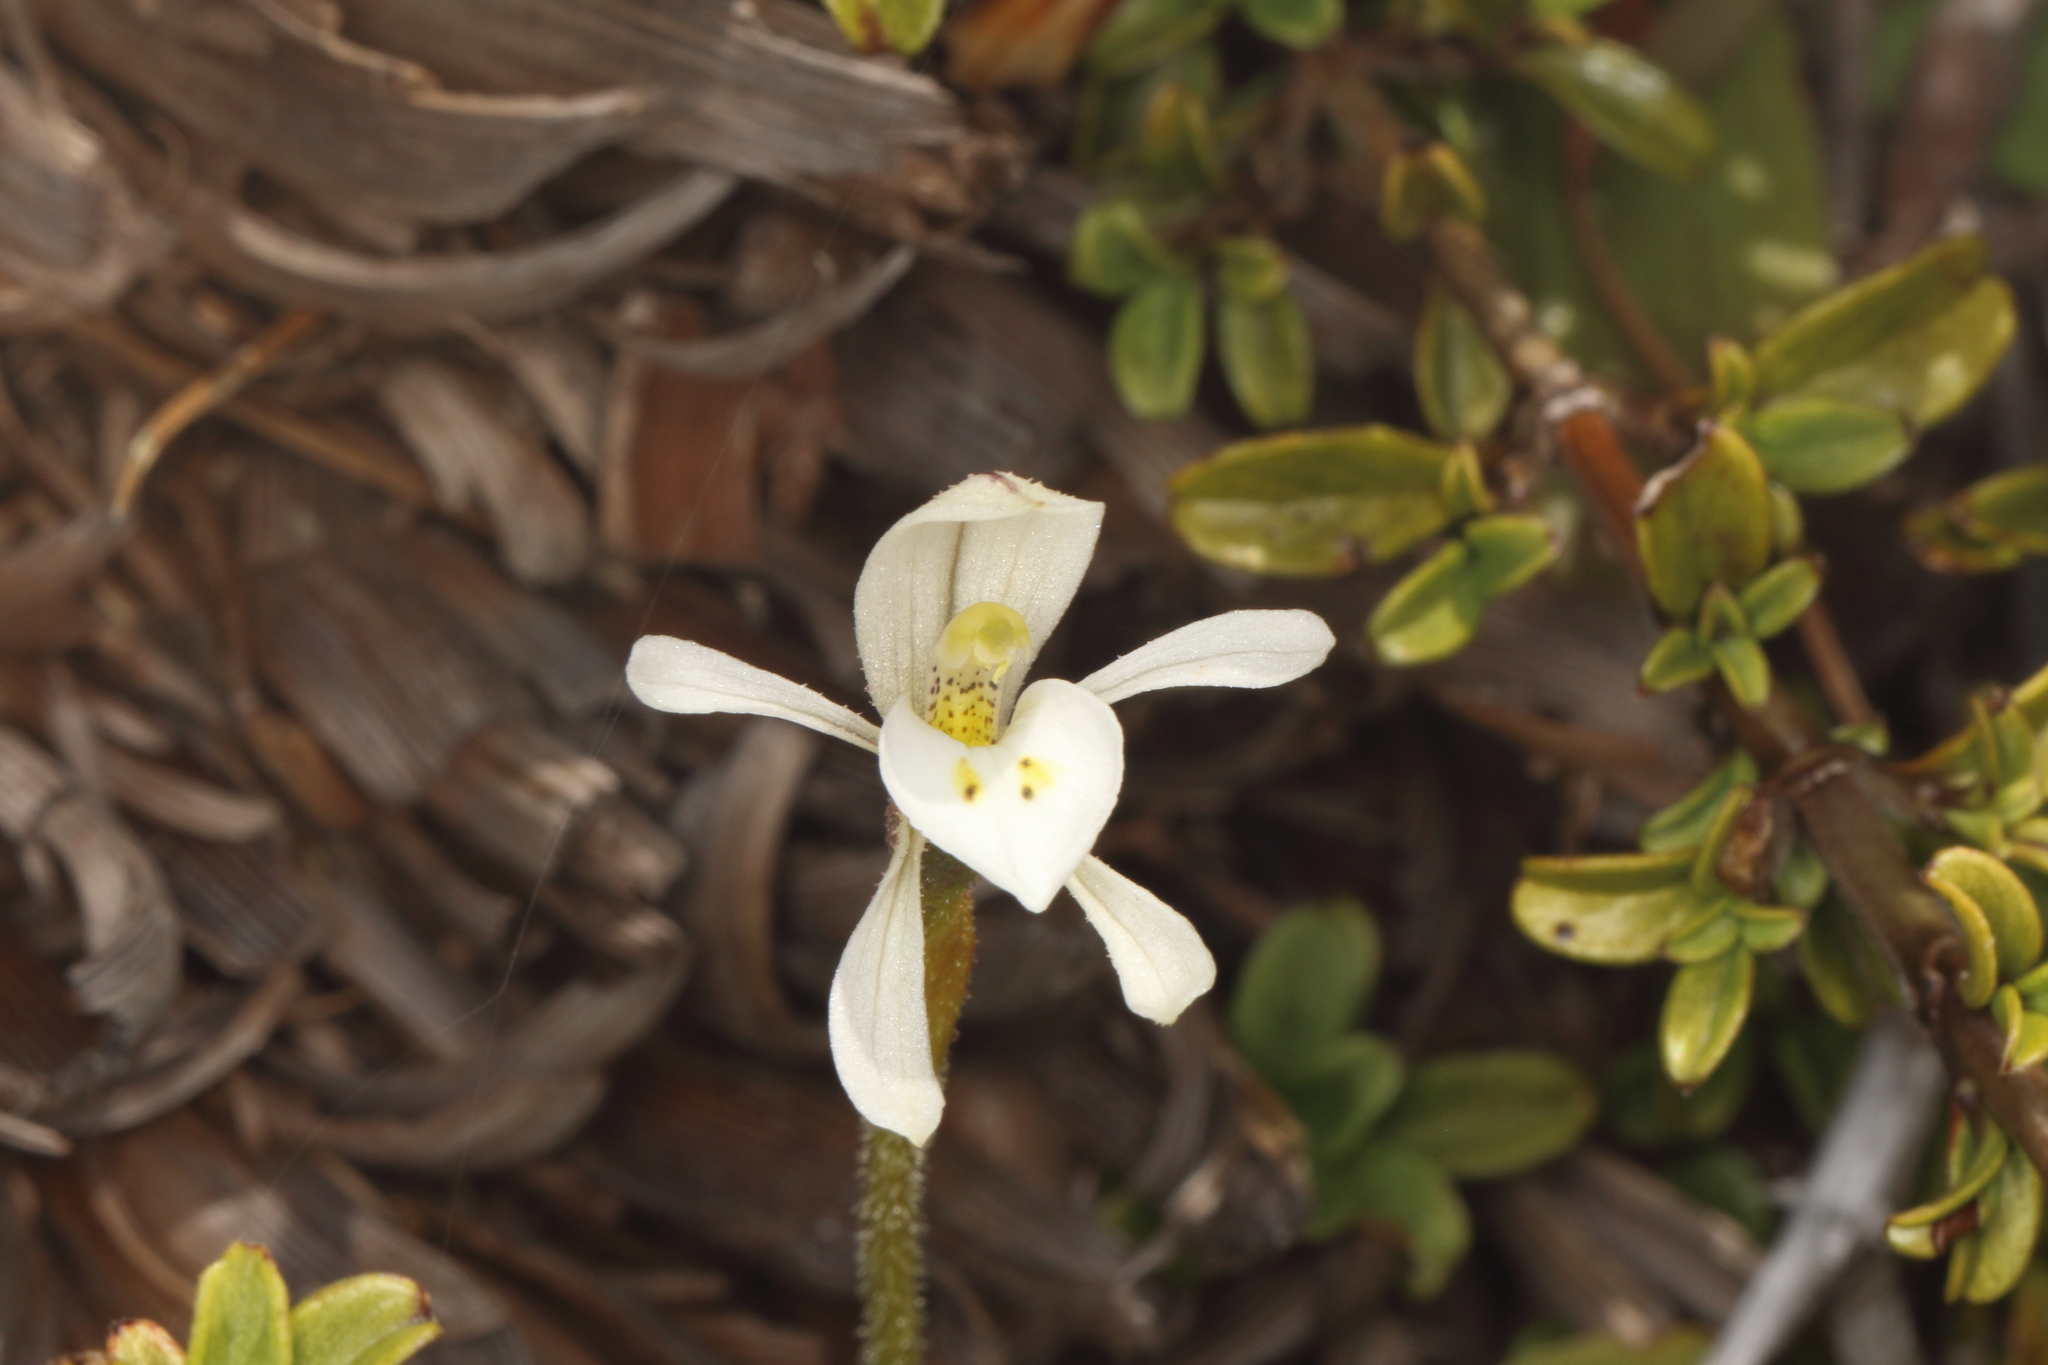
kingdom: Plantae
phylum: Tracheophyta
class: Liliopsida
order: Asparagales
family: Orchidaceae
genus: Aporostylis
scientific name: Aporostylis bifolia
